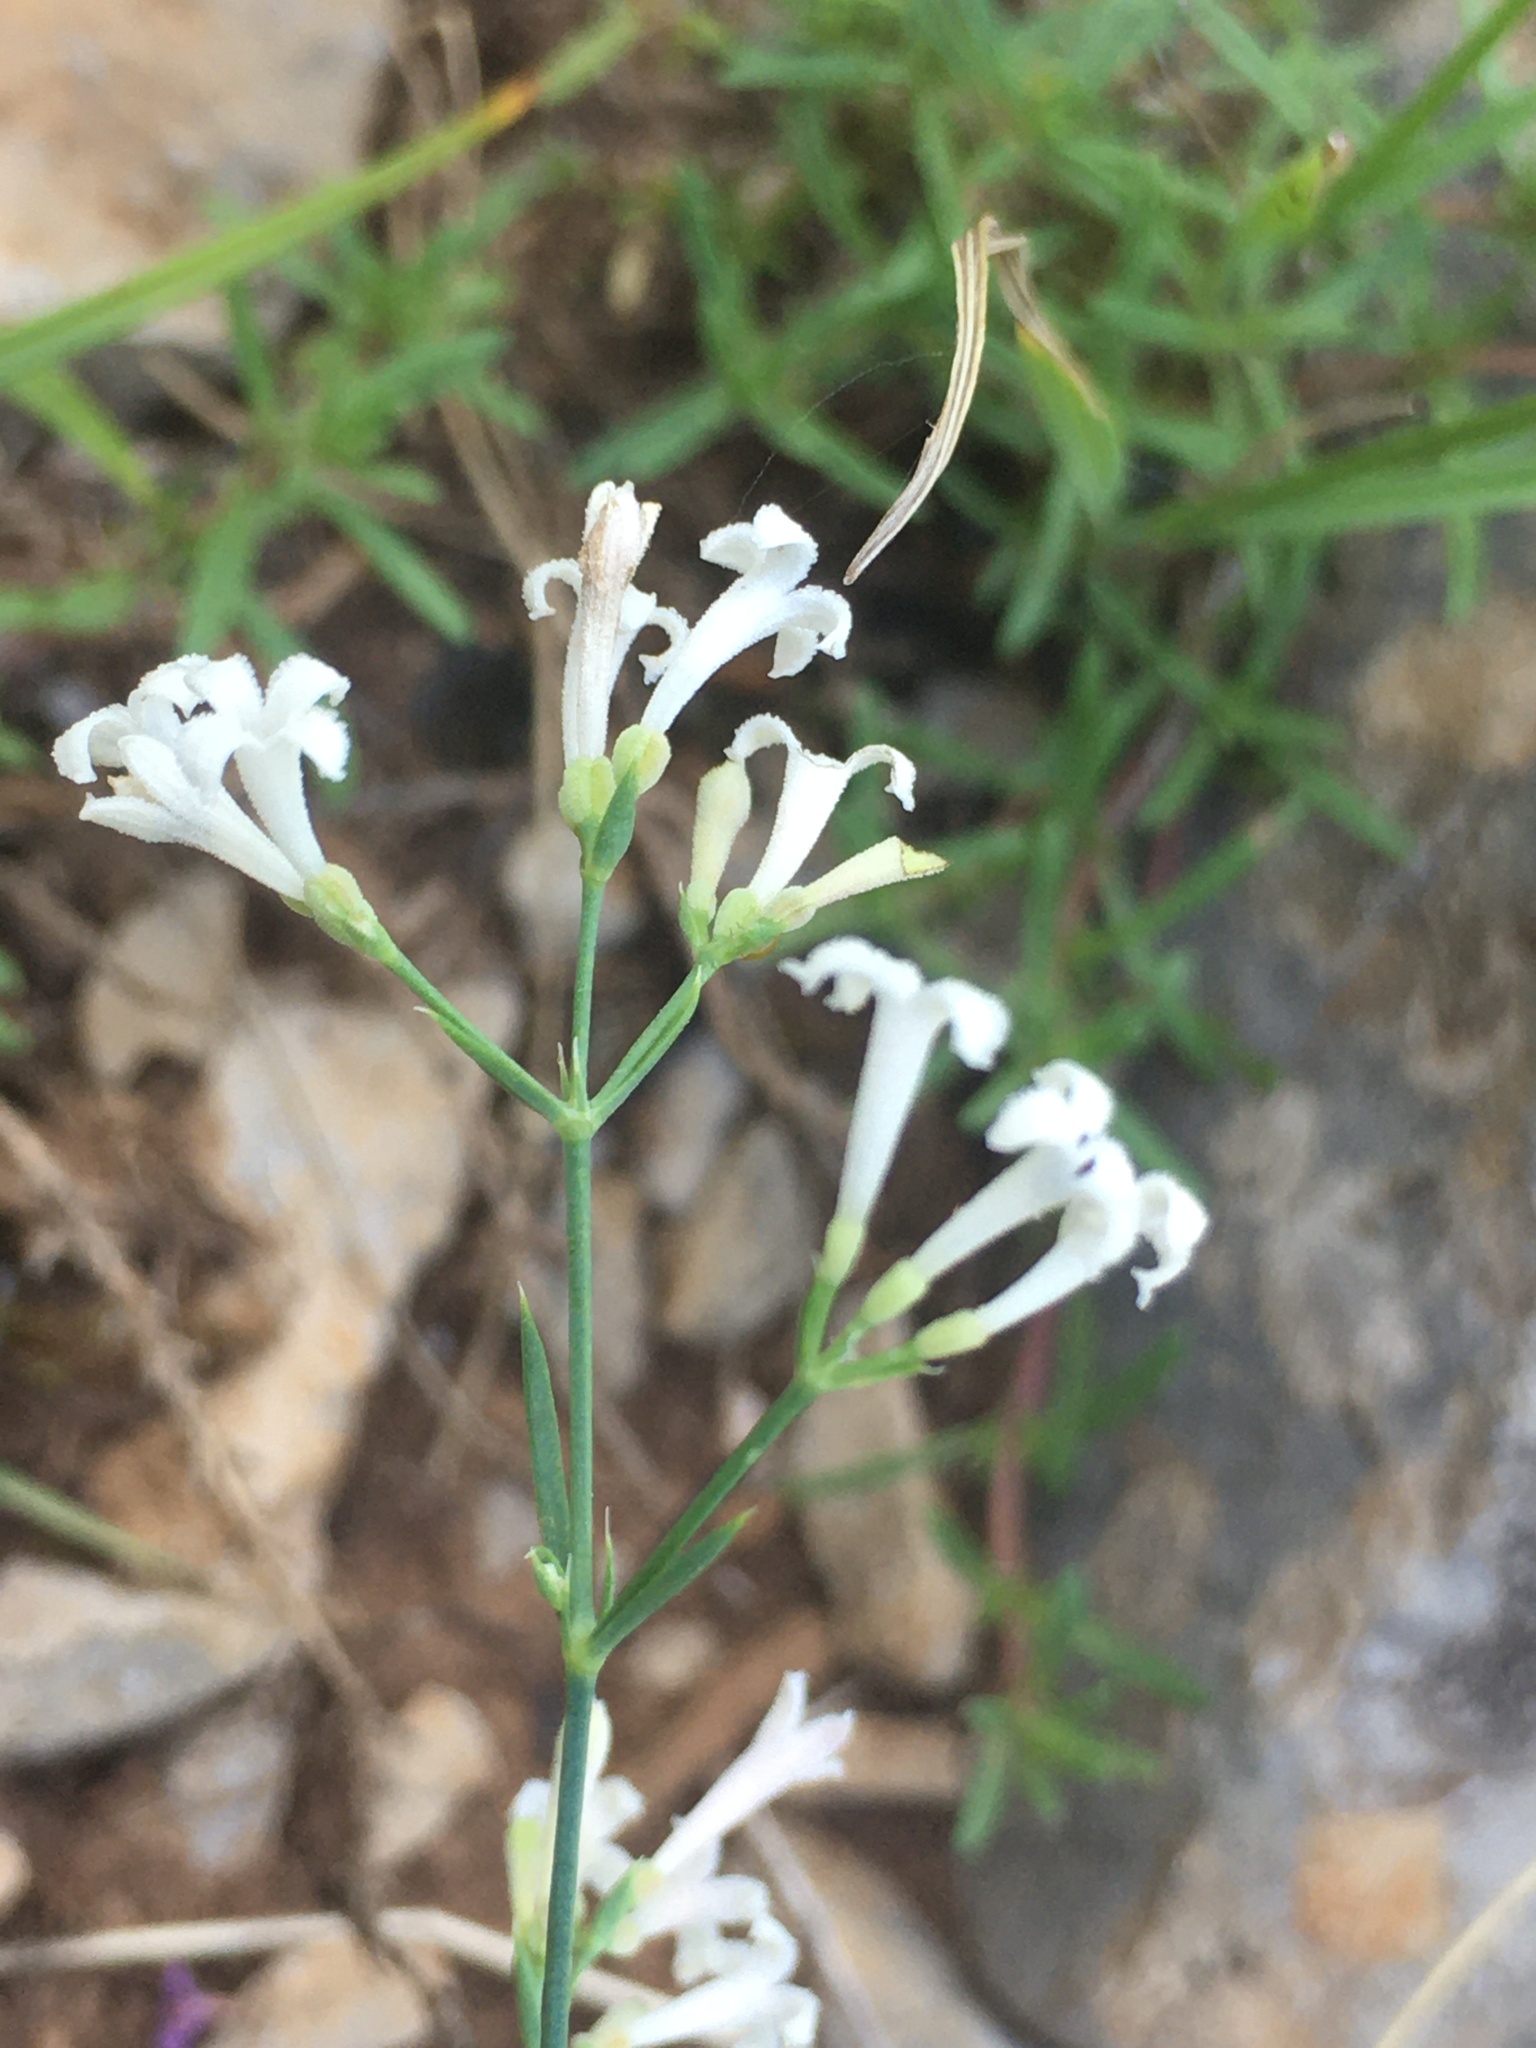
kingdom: Plantae
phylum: Tracheophyta
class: Magnoliopsida
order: Gentianales
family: Rubiaceae
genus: Cynanchica
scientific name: Cynanchica tenella
